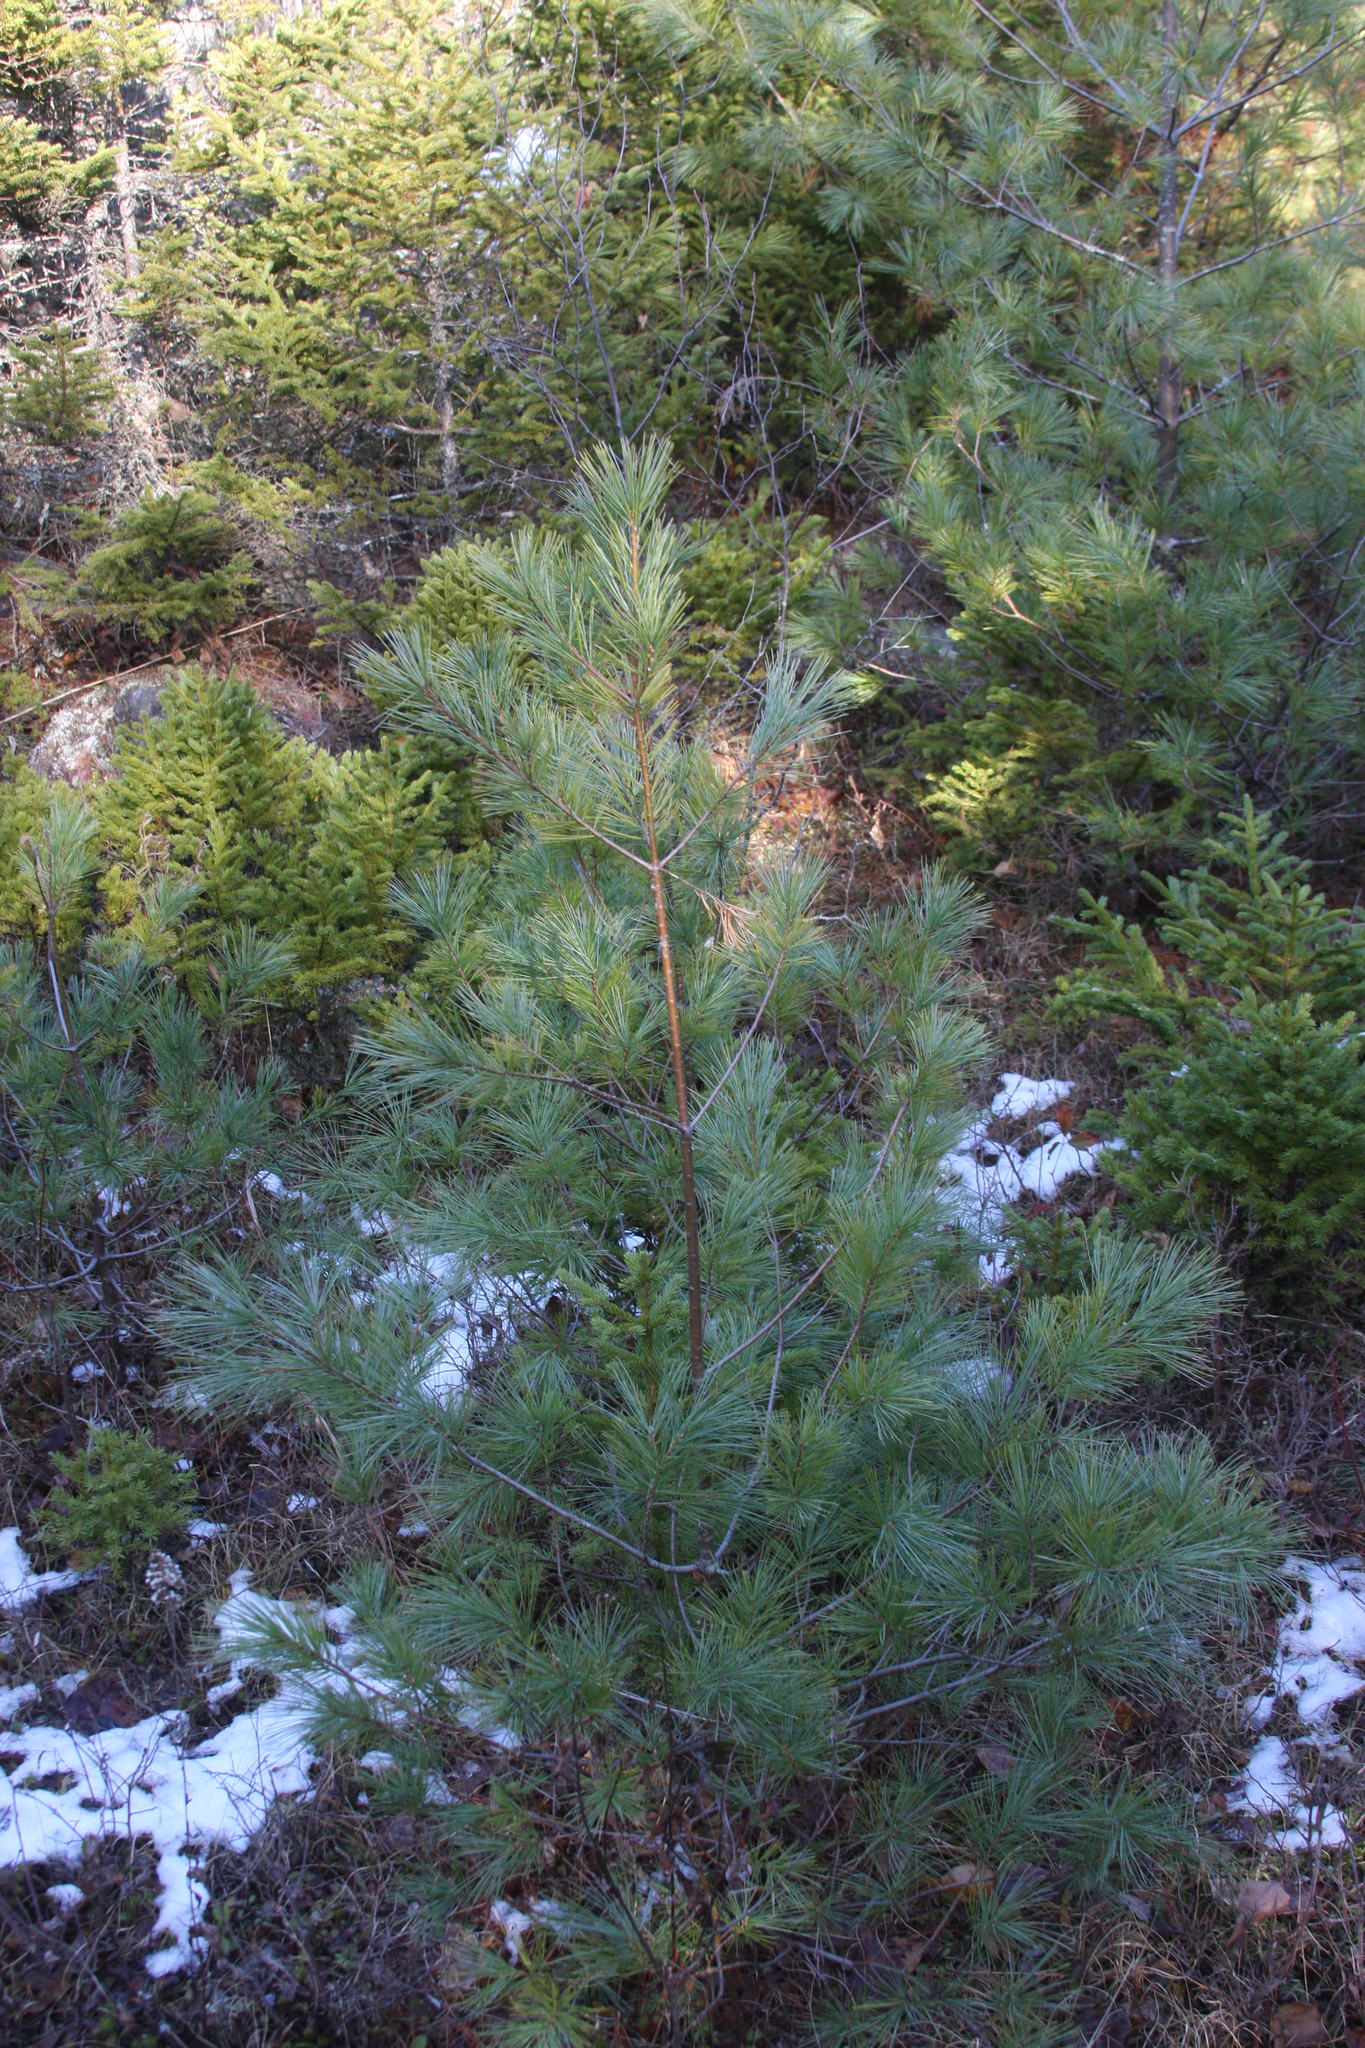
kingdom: Plantae
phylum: Tracheophyta
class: Pinopsida
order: Pinales
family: Pinaceae
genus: Pinus
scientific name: Pinus strobus
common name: Weymouth pine
